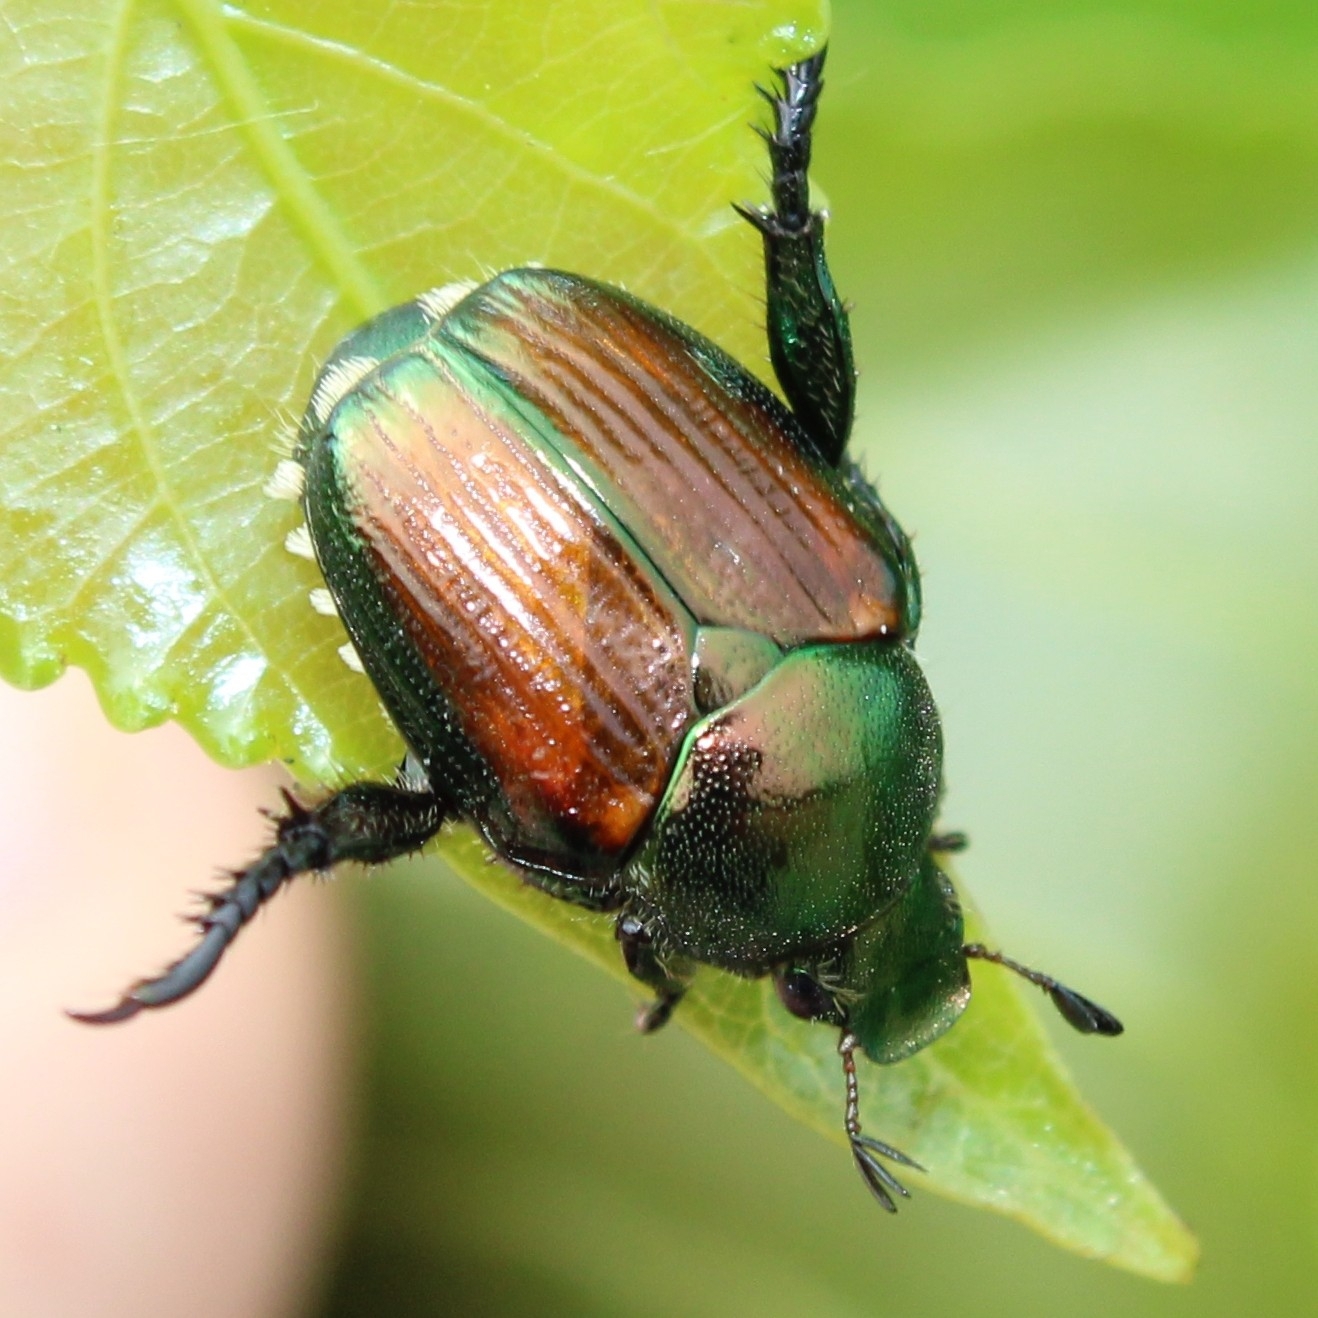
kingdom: Animalia
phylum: Arthropoda
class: Insecta
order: Coleoptera
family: Scarabaeidae
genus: Popillia
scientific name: Popillia japonica
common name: Japanese beetle
